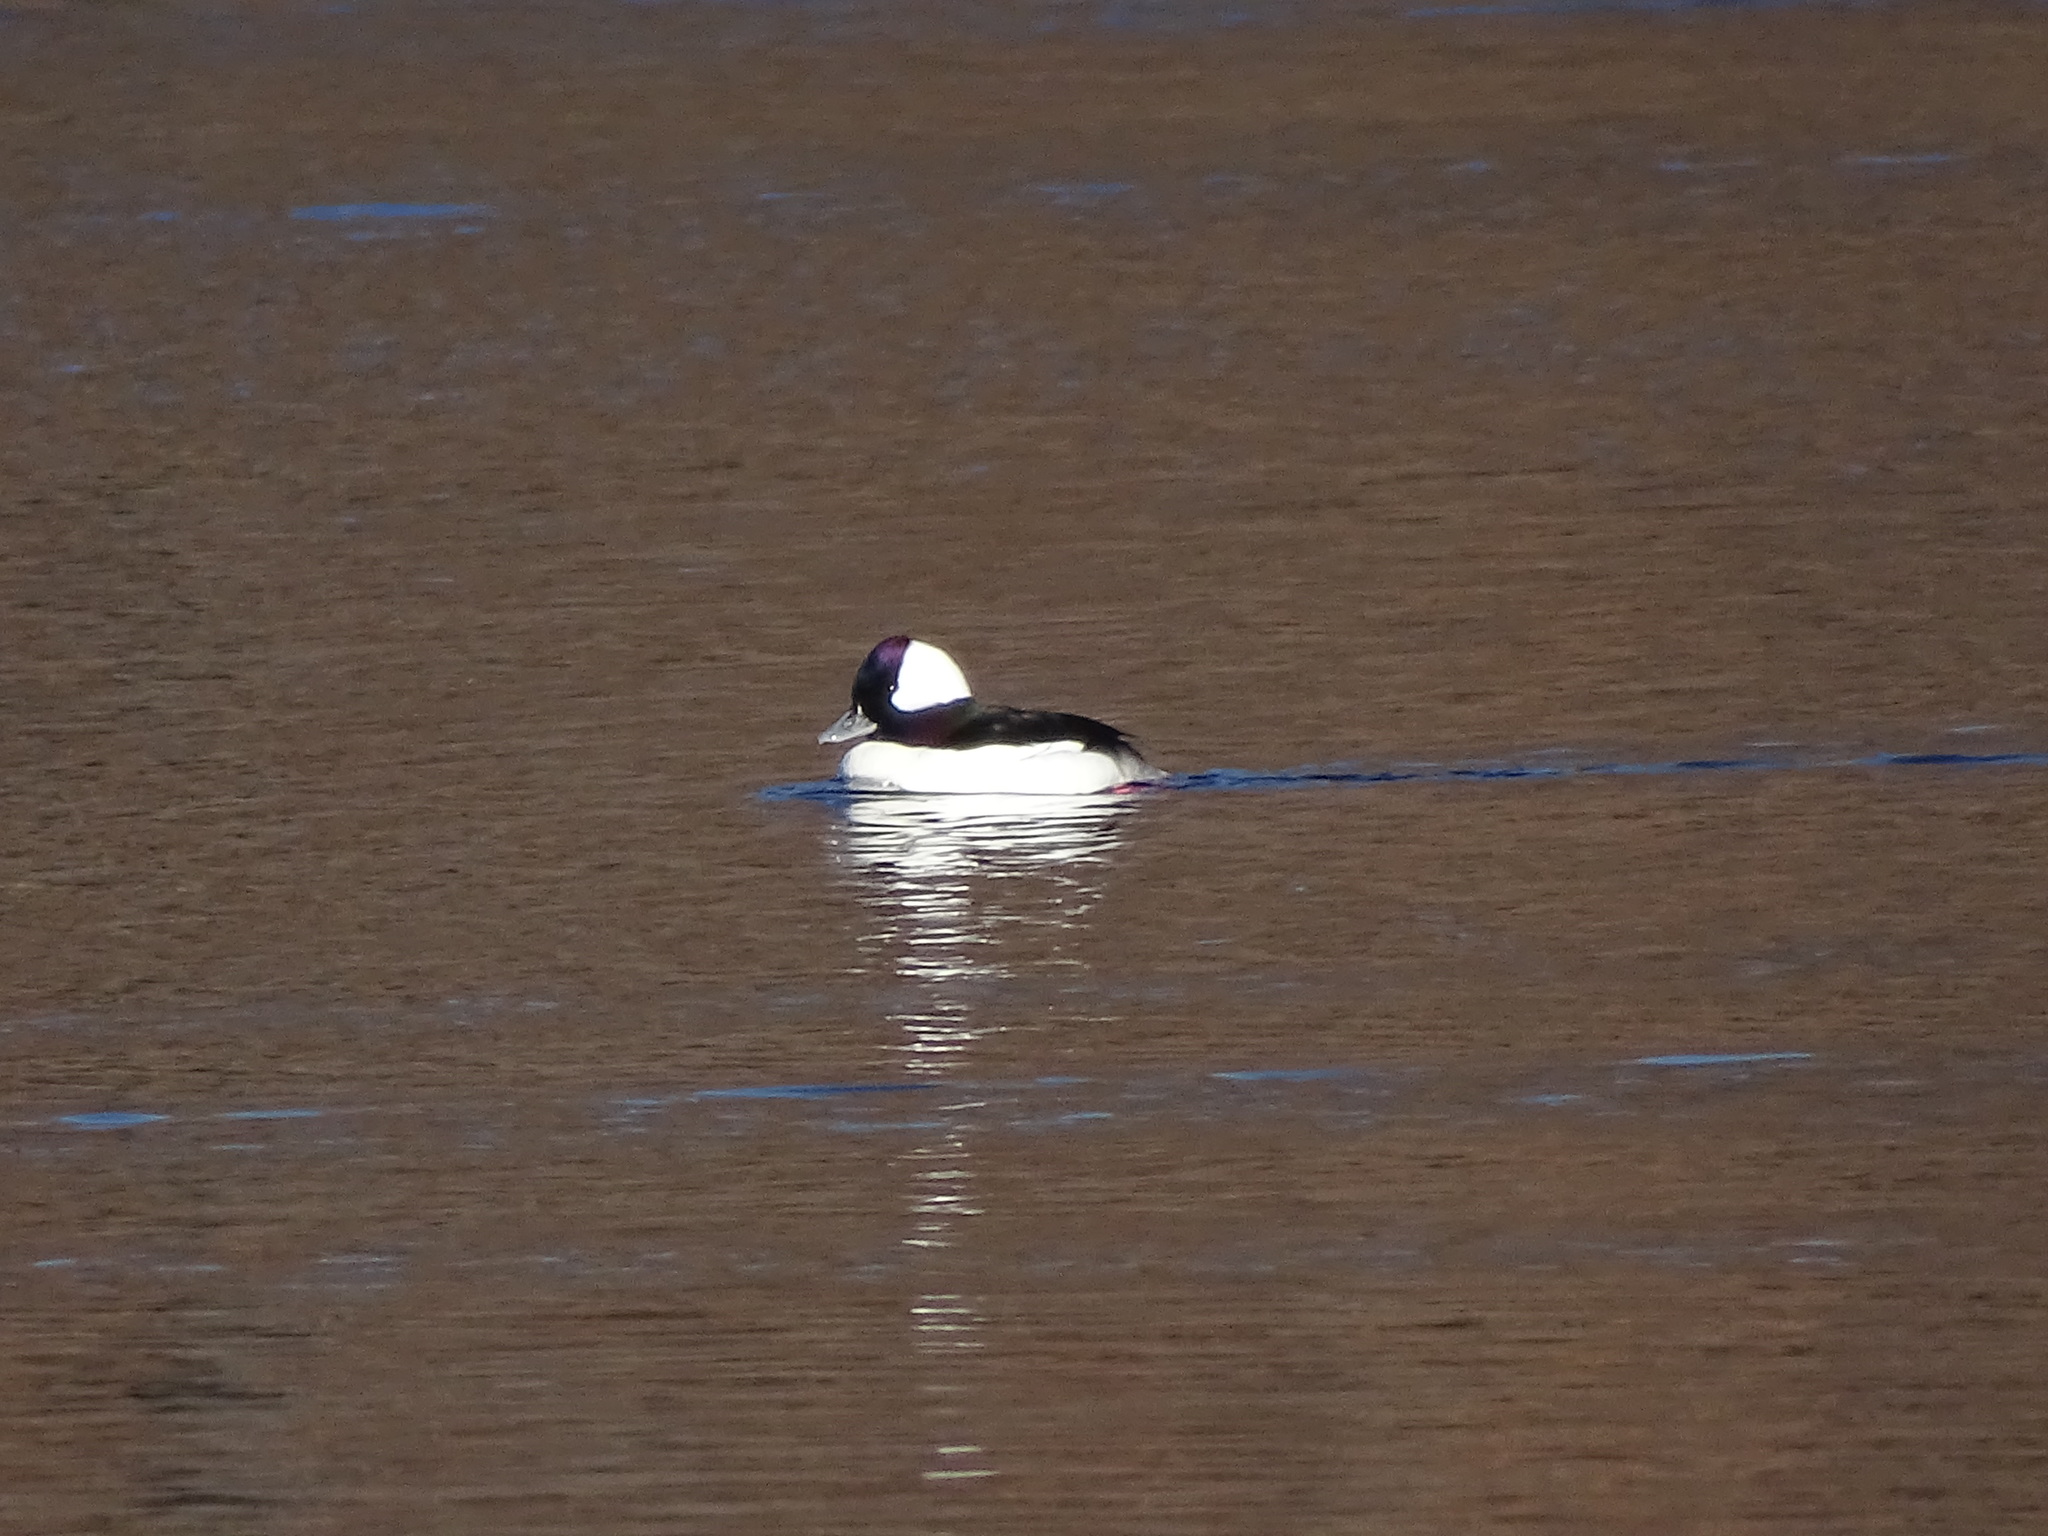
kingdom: Animalia
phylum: Chordata
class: Aves
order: Anseriformes
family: Anatidae
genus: Bucephala
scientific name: Bucephala albeola
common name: Bufflehead
